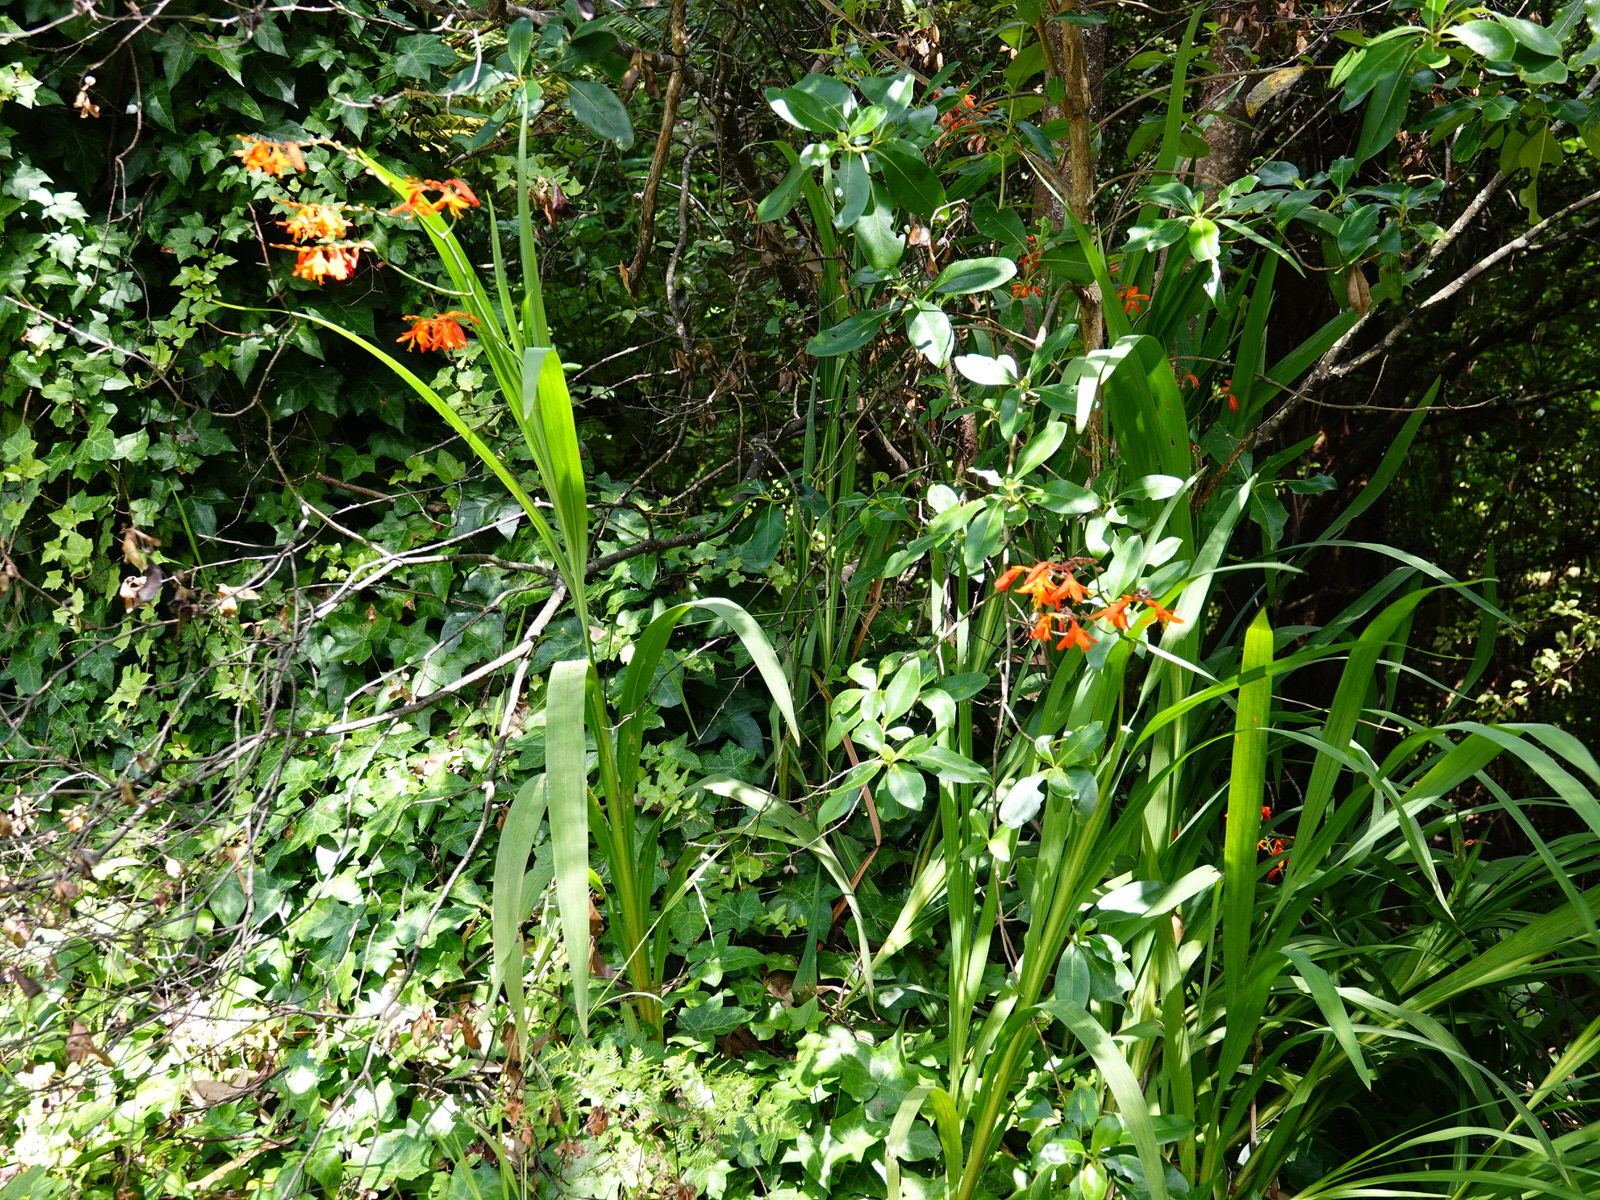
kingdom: Plantae
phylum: Tracheophyta
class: Liliopsida
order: Asparagales
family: Iridaceae
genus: Crocosmia
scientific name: Crocosmia crocosmiiflora
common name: Montbretia
